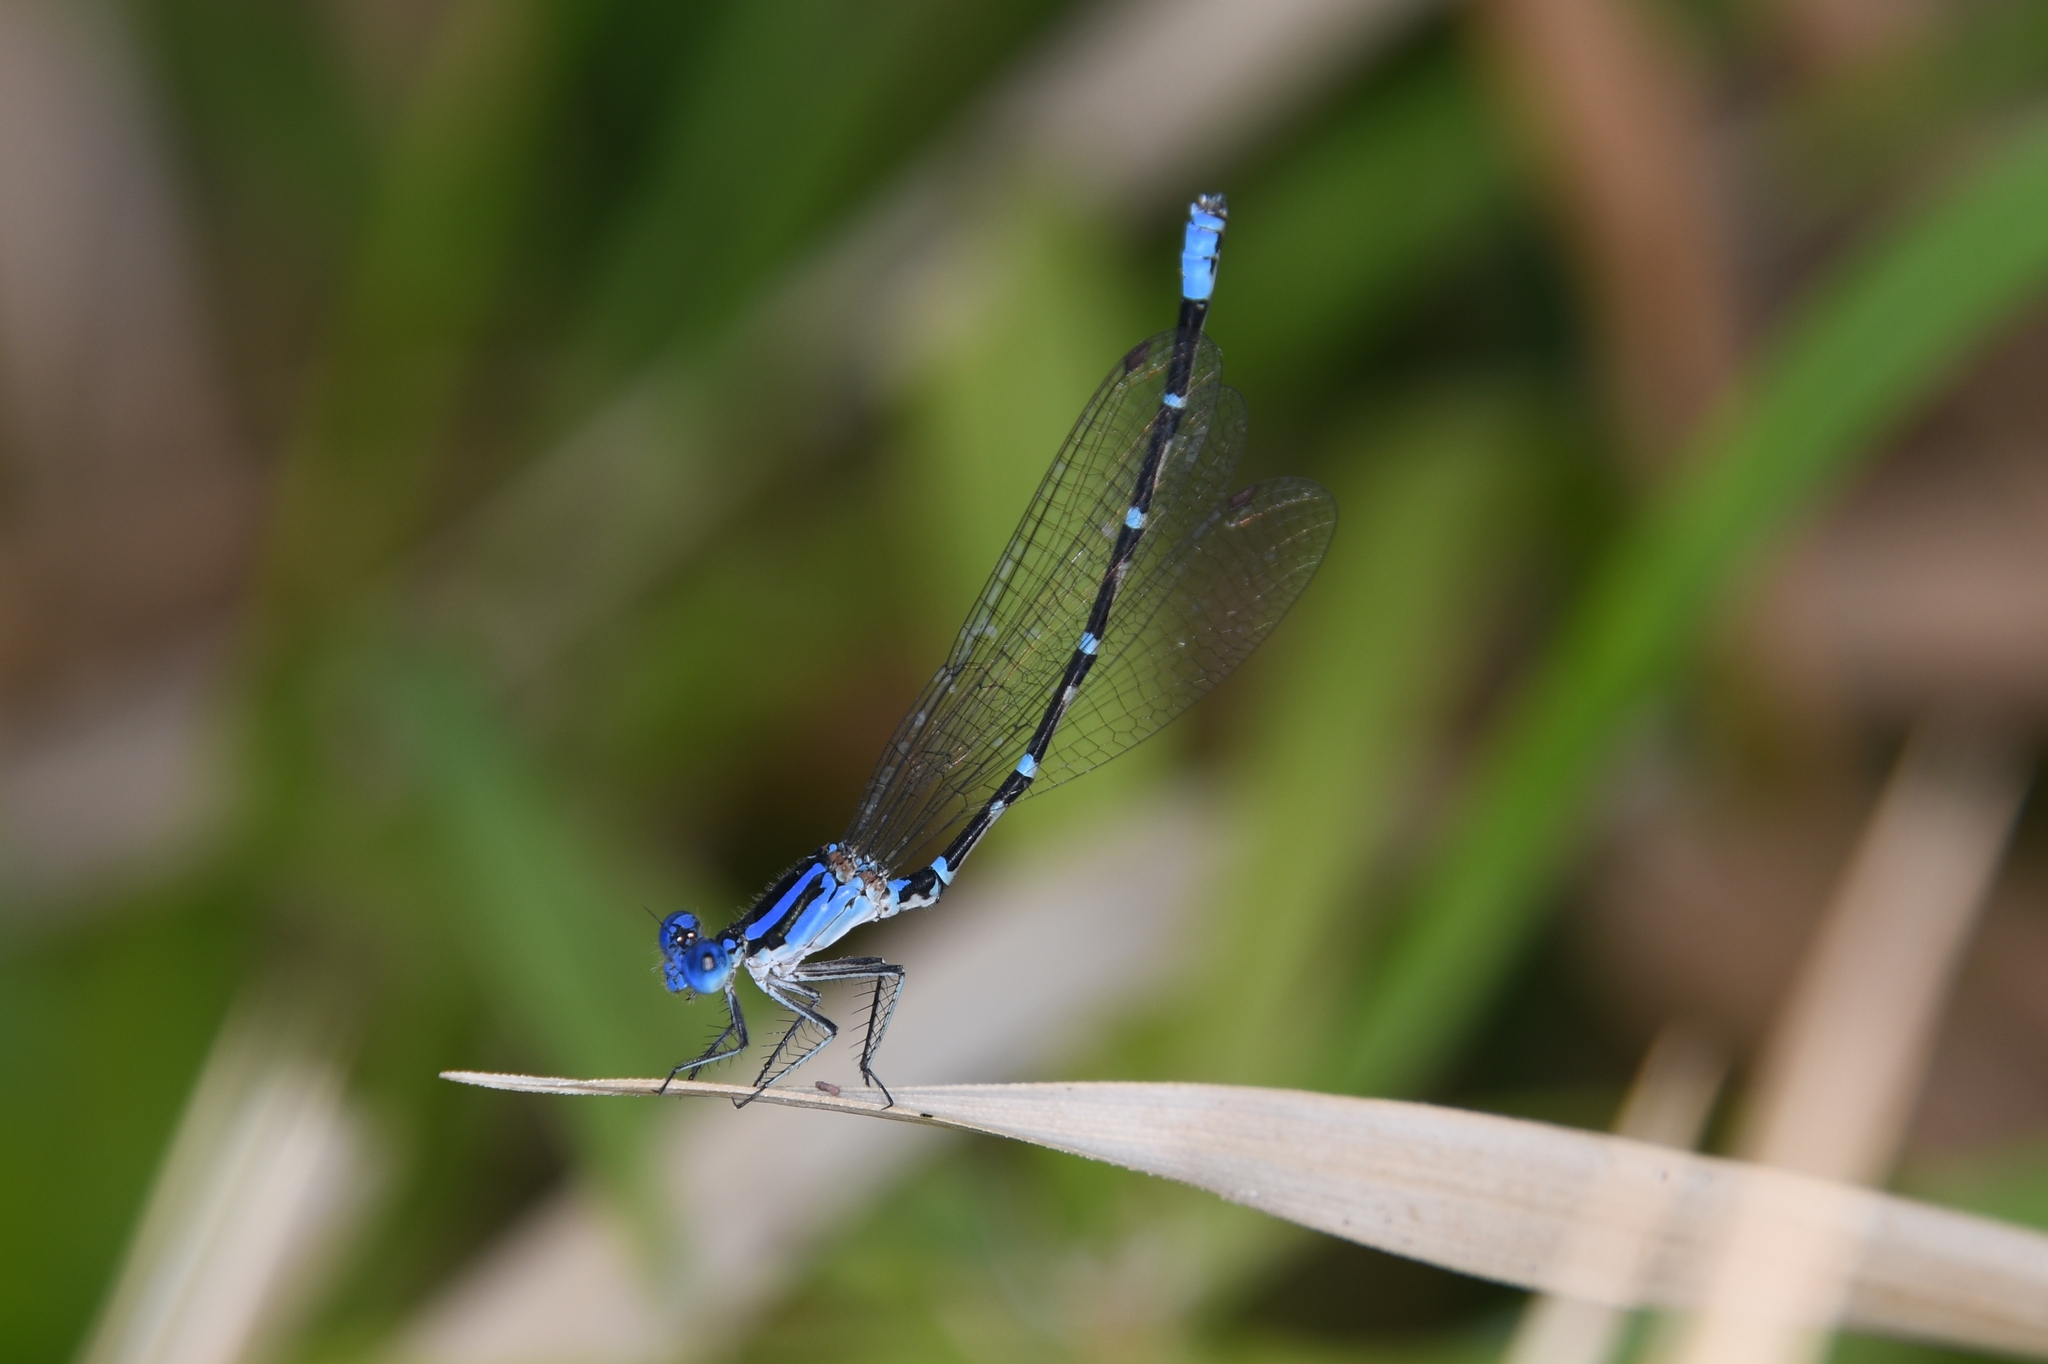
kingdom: Animalia
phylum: Arthropoda
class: Insecta
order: Odonata
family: Coenagrionidae
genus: Argia
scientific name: Argia sedula
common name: Blue-ringed dancer
